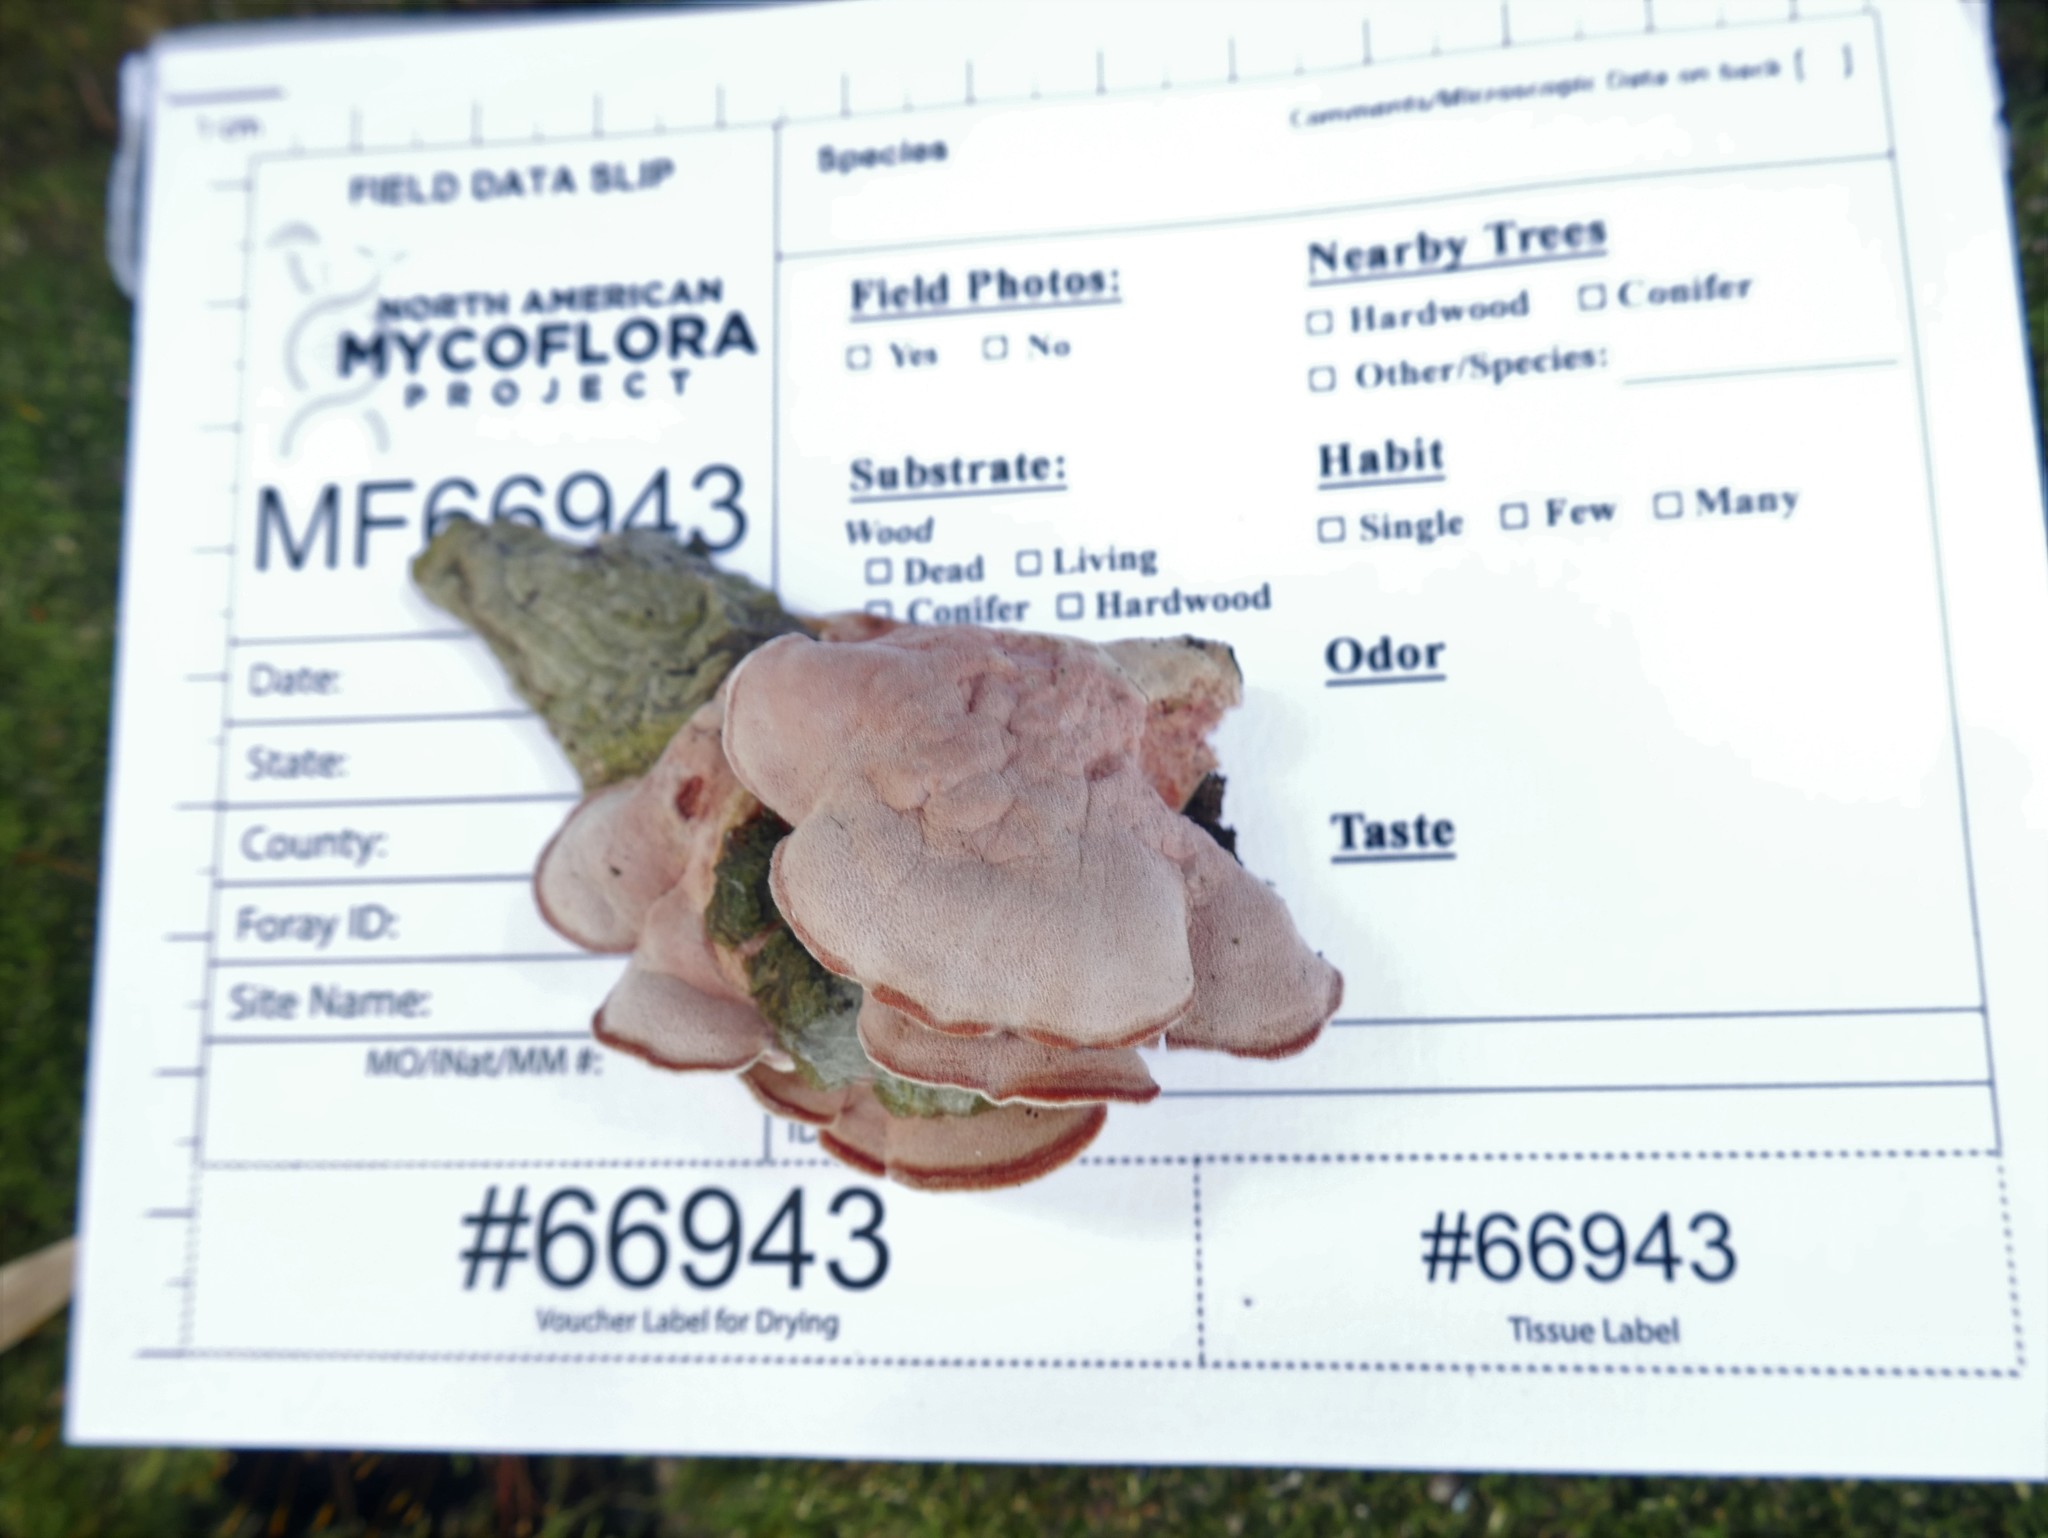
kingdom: Fungi
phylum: Basidiomycota
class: Agaricomycetes
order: Polyporales
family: Irpicaceae
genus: Byssomerulius
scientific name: Byssomerulius incarnatus
